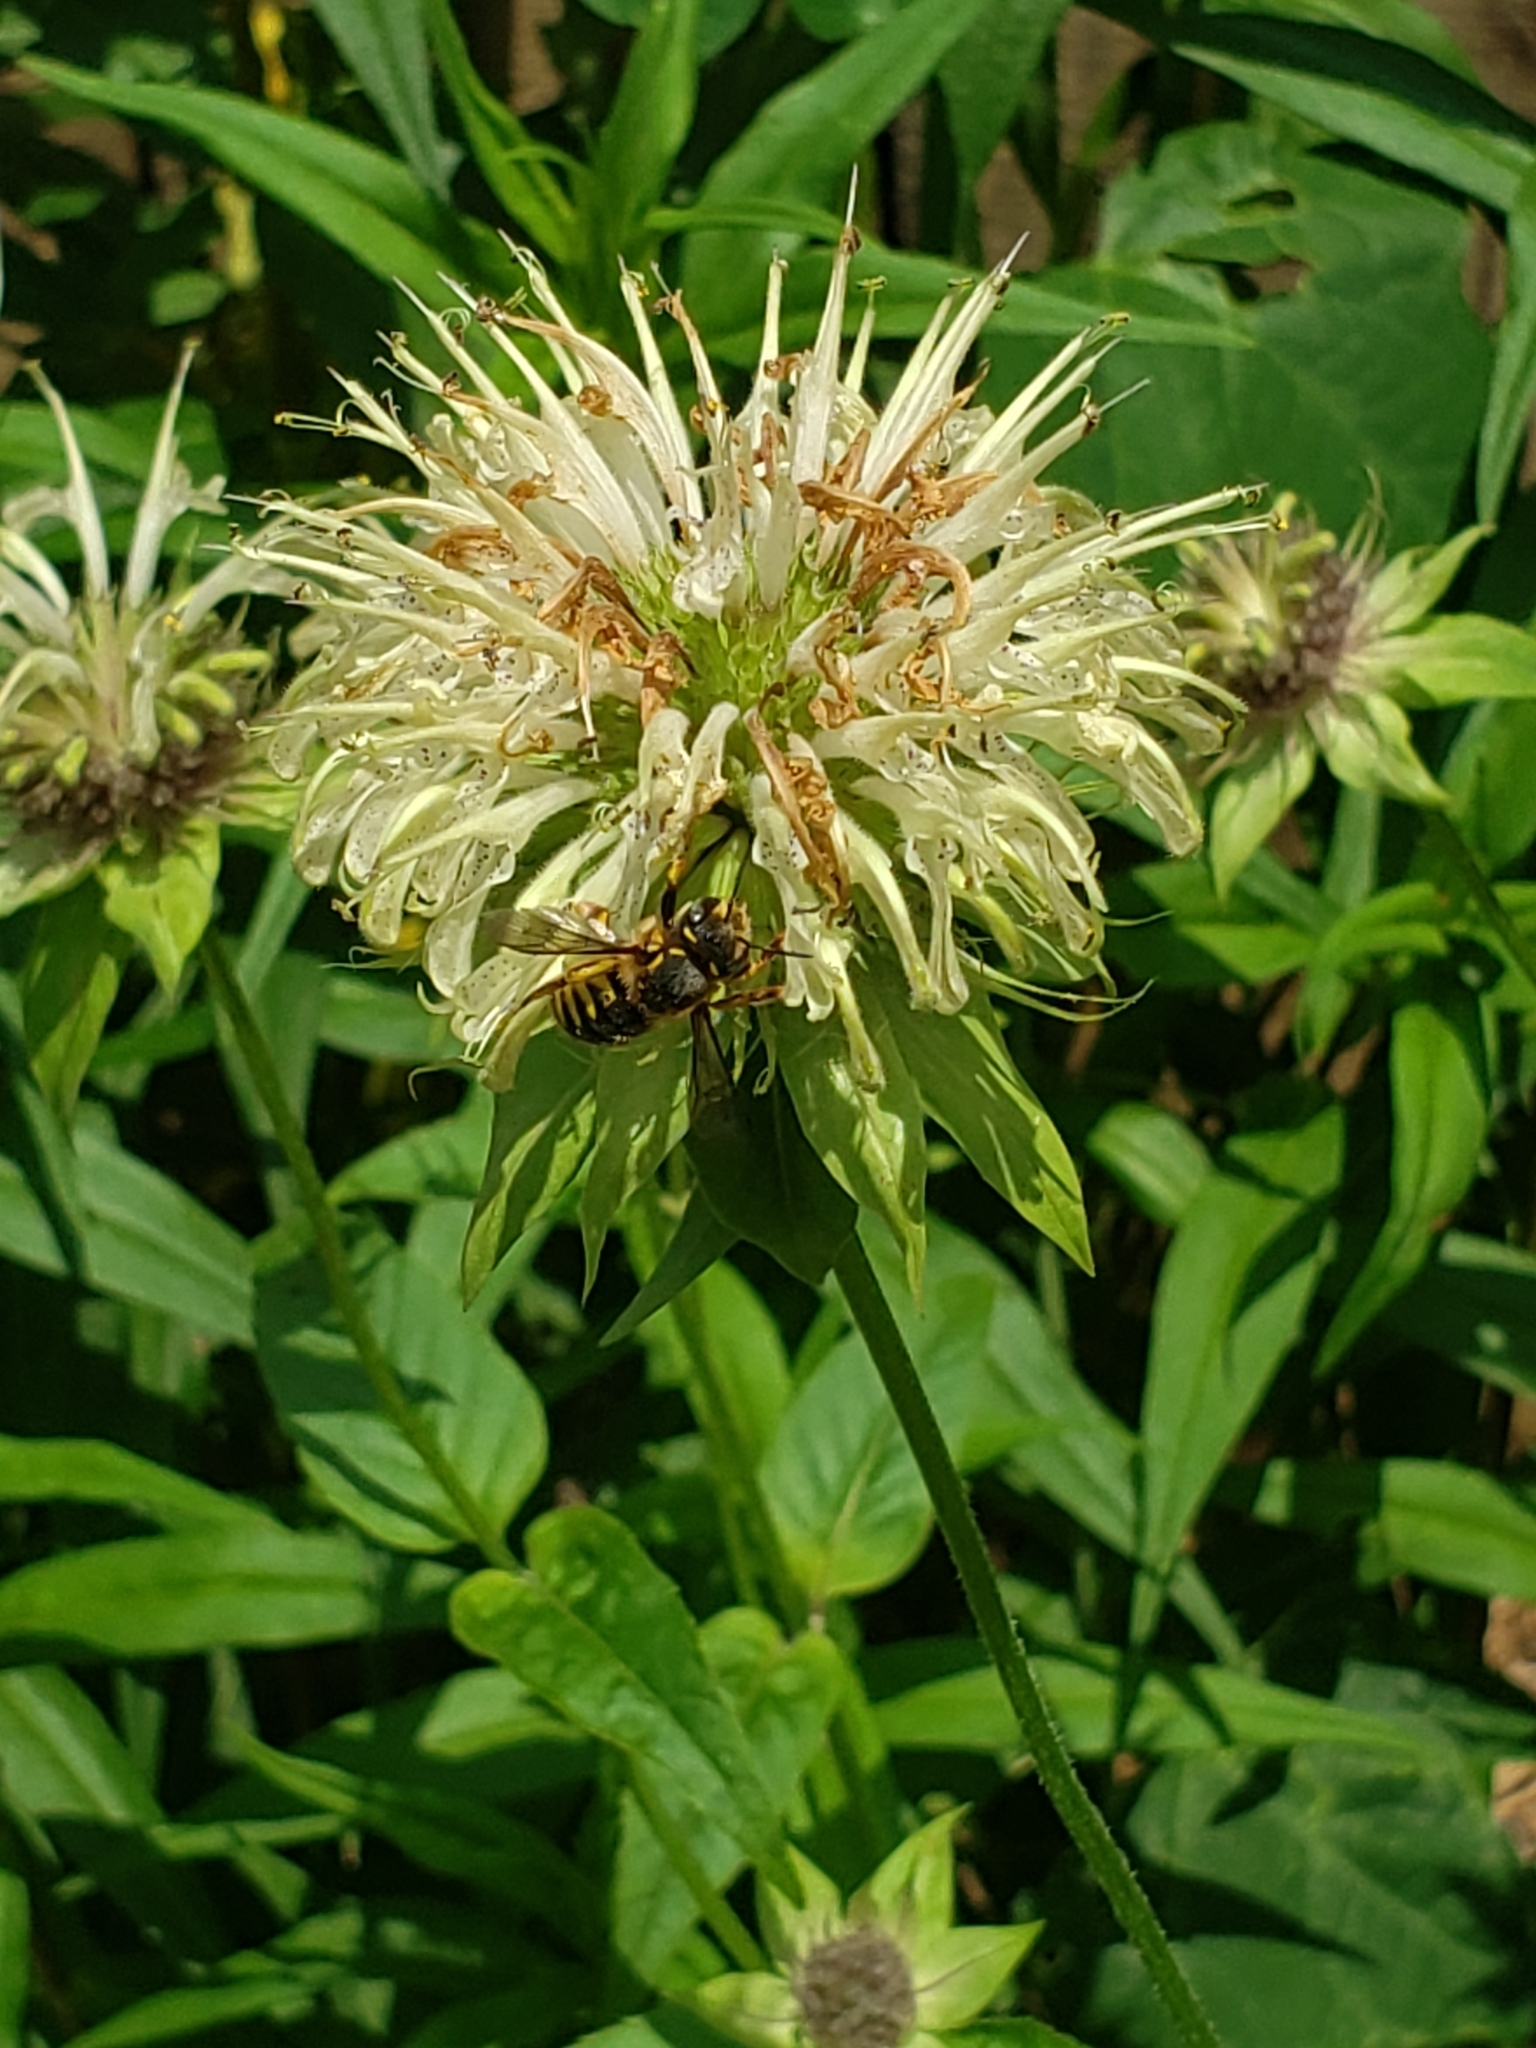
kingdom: Animalia
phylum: Arthropoda
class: Insecta
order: Hymenoptera
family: Megachilidae
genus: Anthidium
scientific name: Anthidium manicatum
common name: Wool carder bee
